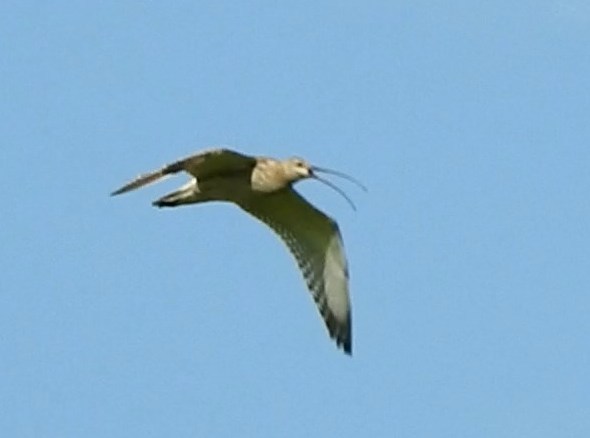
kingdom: Animalia
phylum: Chordata
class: Aves
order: Charadriiformes
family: Scolopacidae
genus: Numenius
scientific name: Numenius arquata
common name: Eurasian curlew
